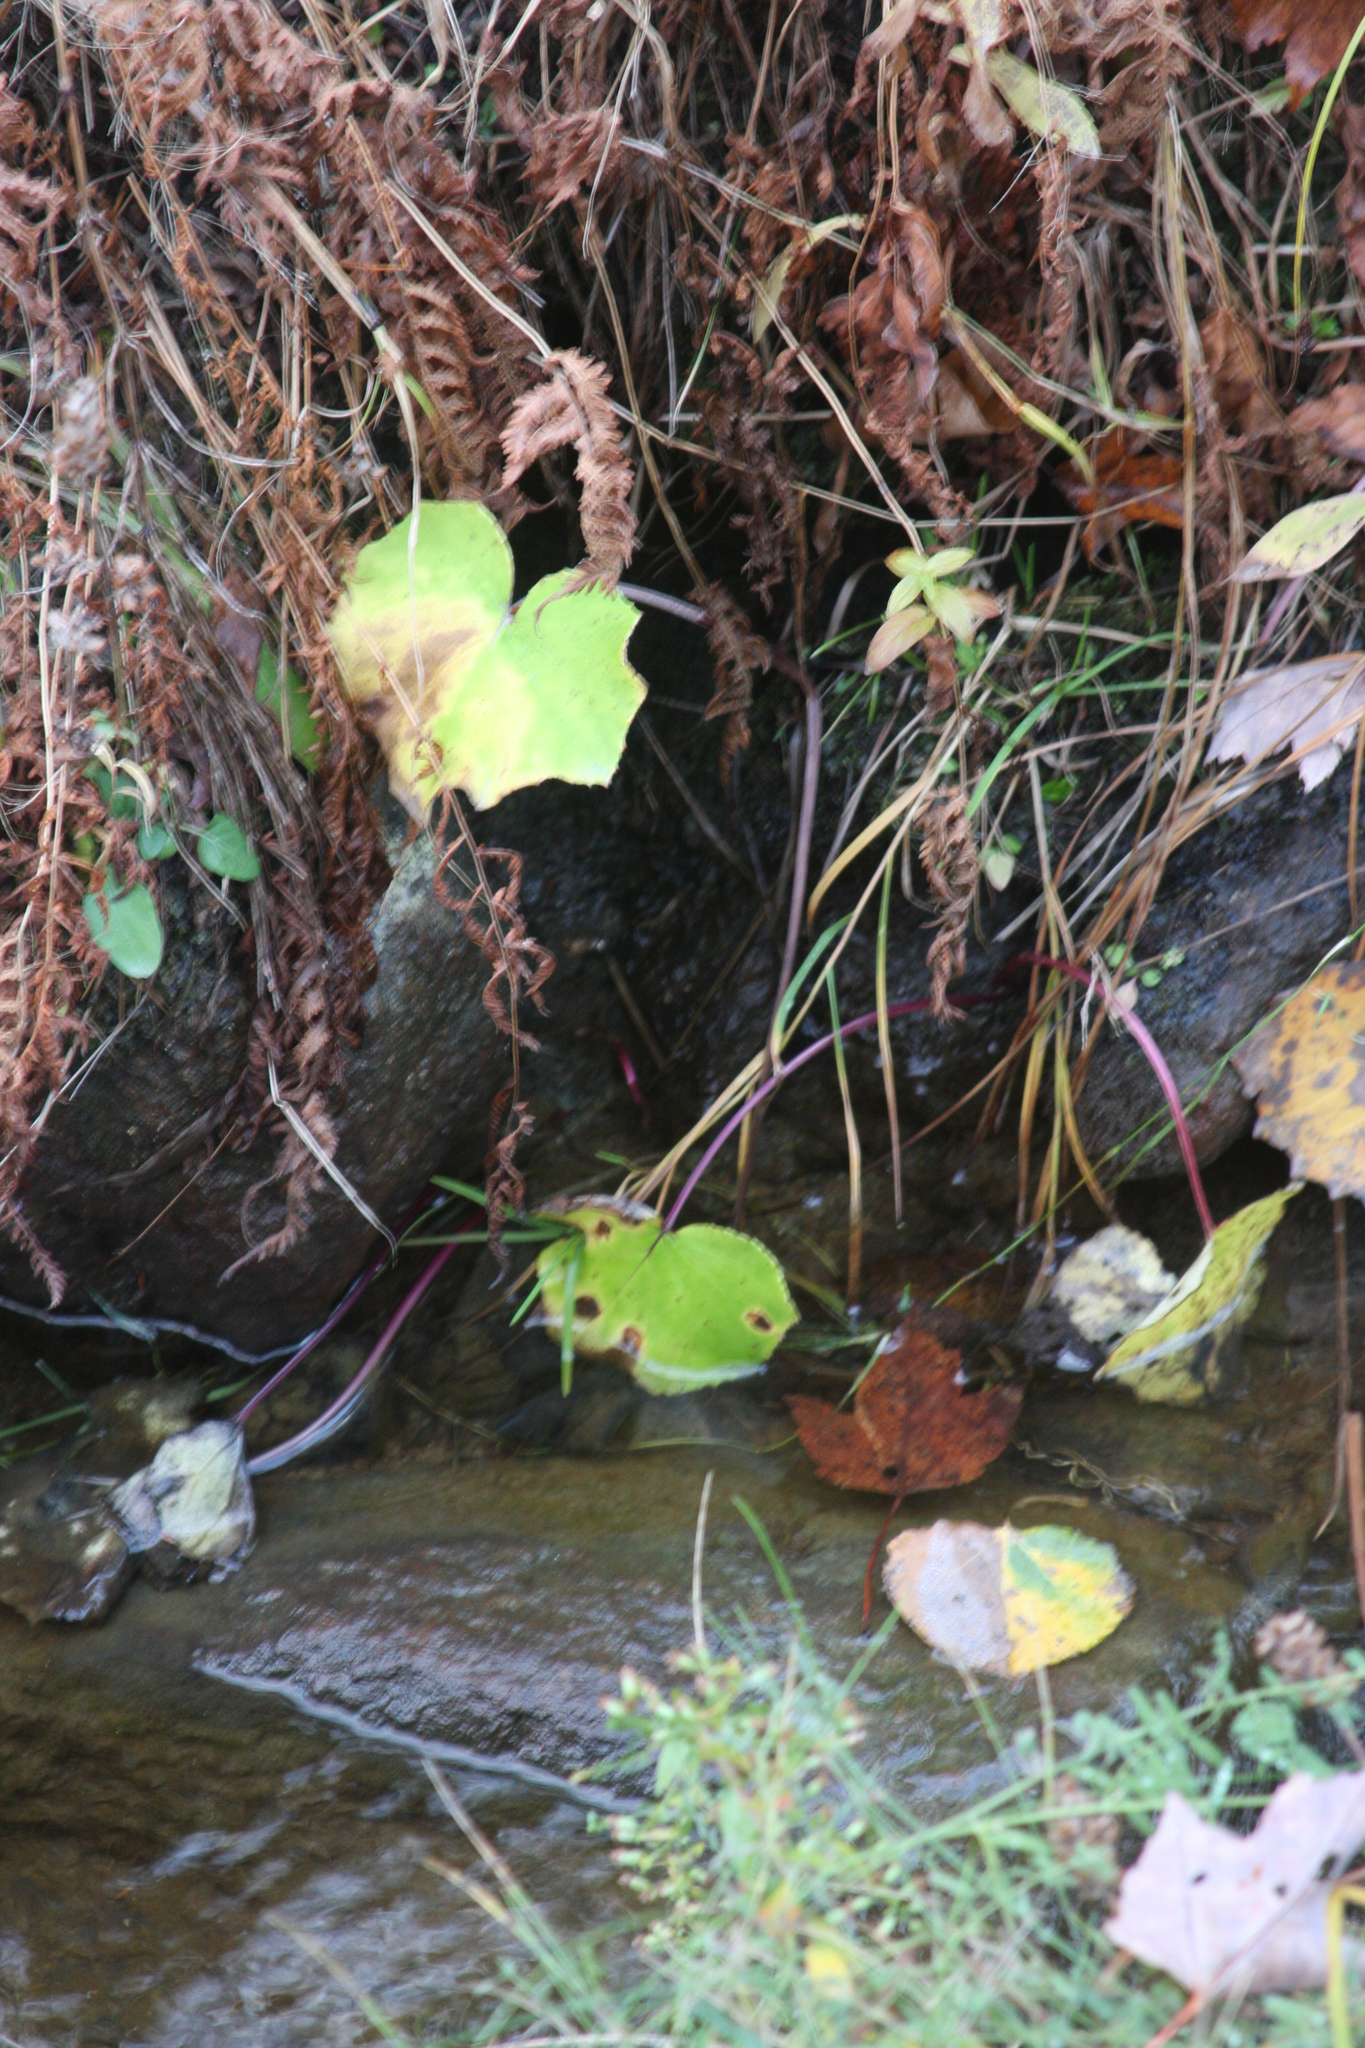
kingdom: Plantae
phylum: Tracheophyta
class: Magnoliopsida
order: Asterales
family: Asteraceae
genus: Tussilago
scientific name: Tussilago farfara
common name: Coltsfoot
